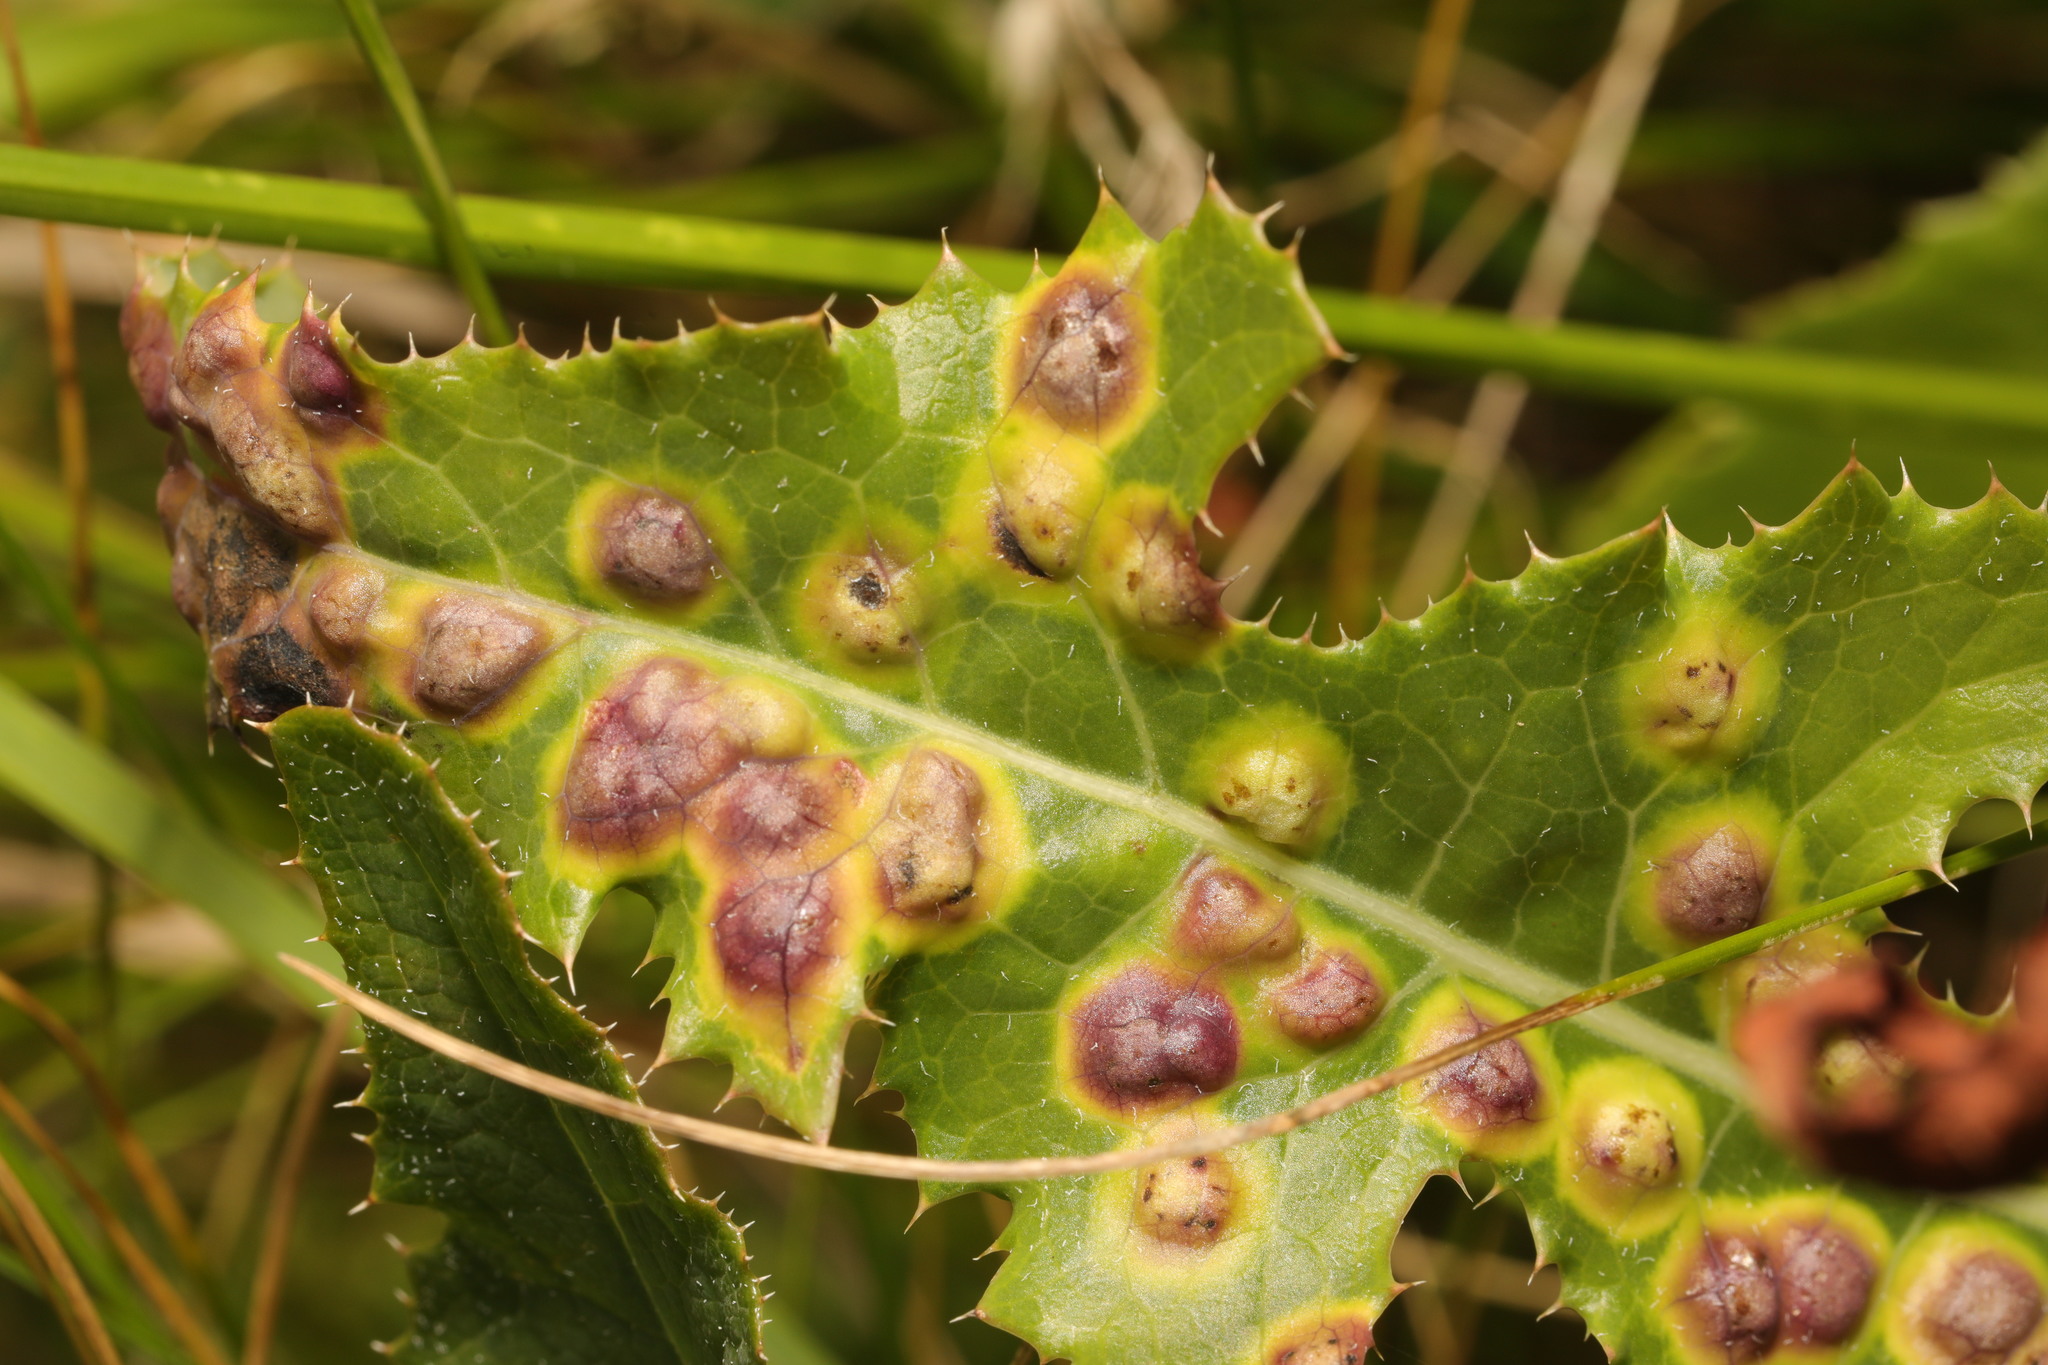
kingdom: Animalia
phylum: Arthropoda
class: Insecta
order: Diptera
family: Cecidomyiidae
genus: Cystiphora
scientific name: Cystiphora sonchi
